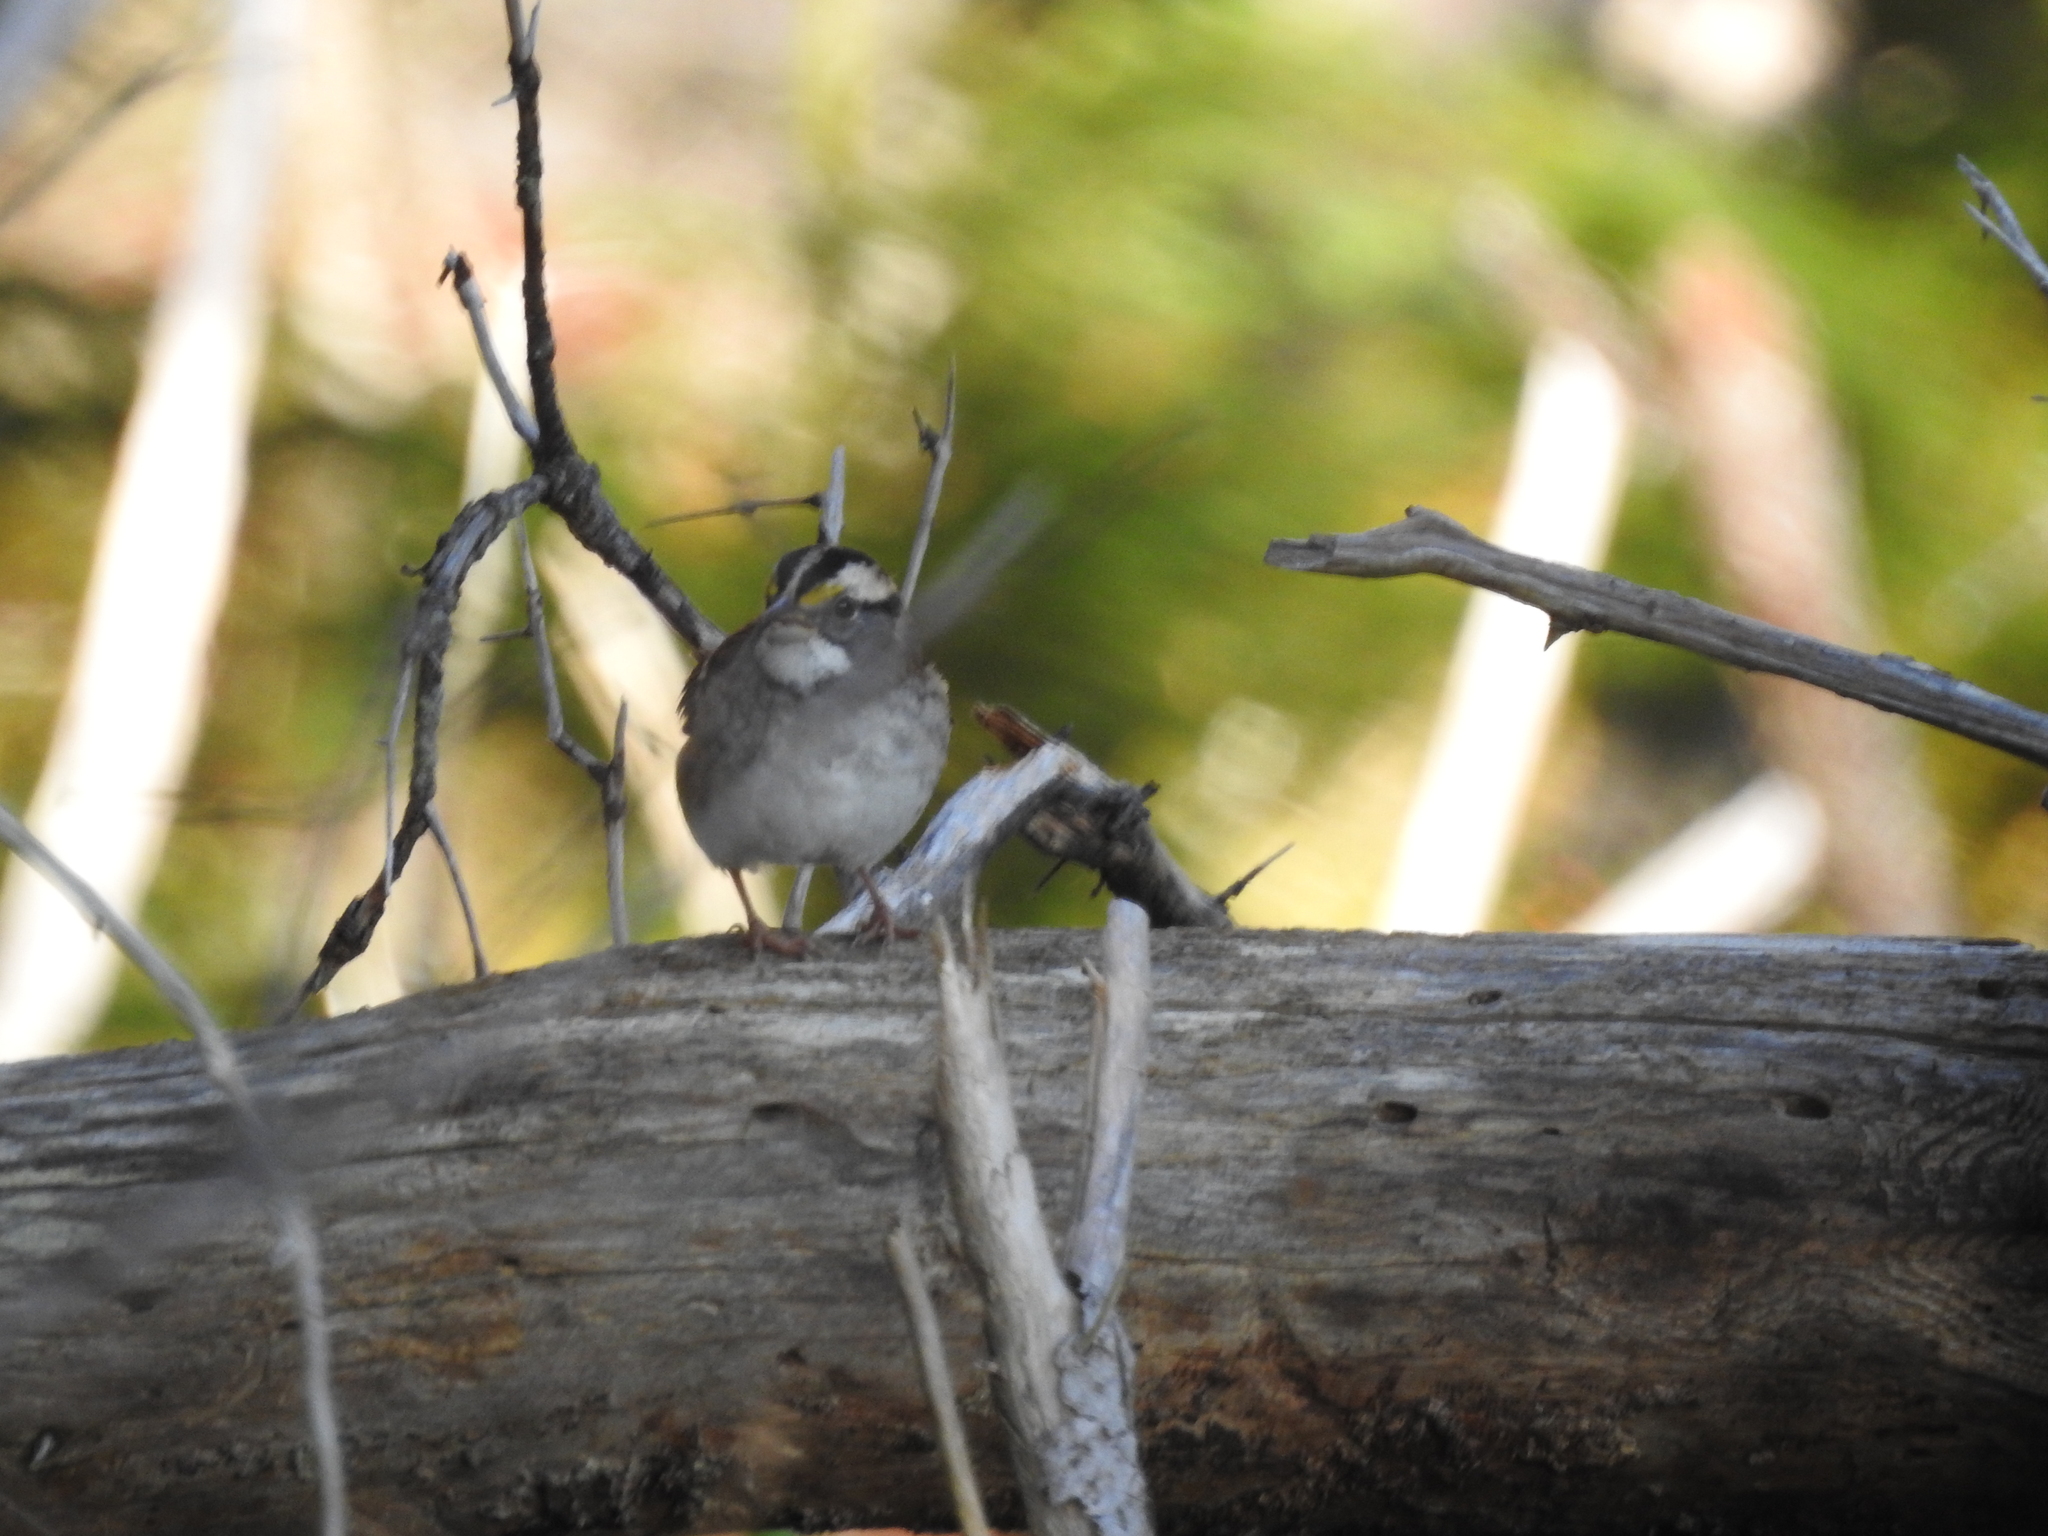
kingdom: Animalia
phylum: Chordata
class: Aves
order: Passeriformes
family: Passerellidae
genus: Zonotrichia
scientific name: Zonotrichia albicollis
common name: White-throated sparrow
